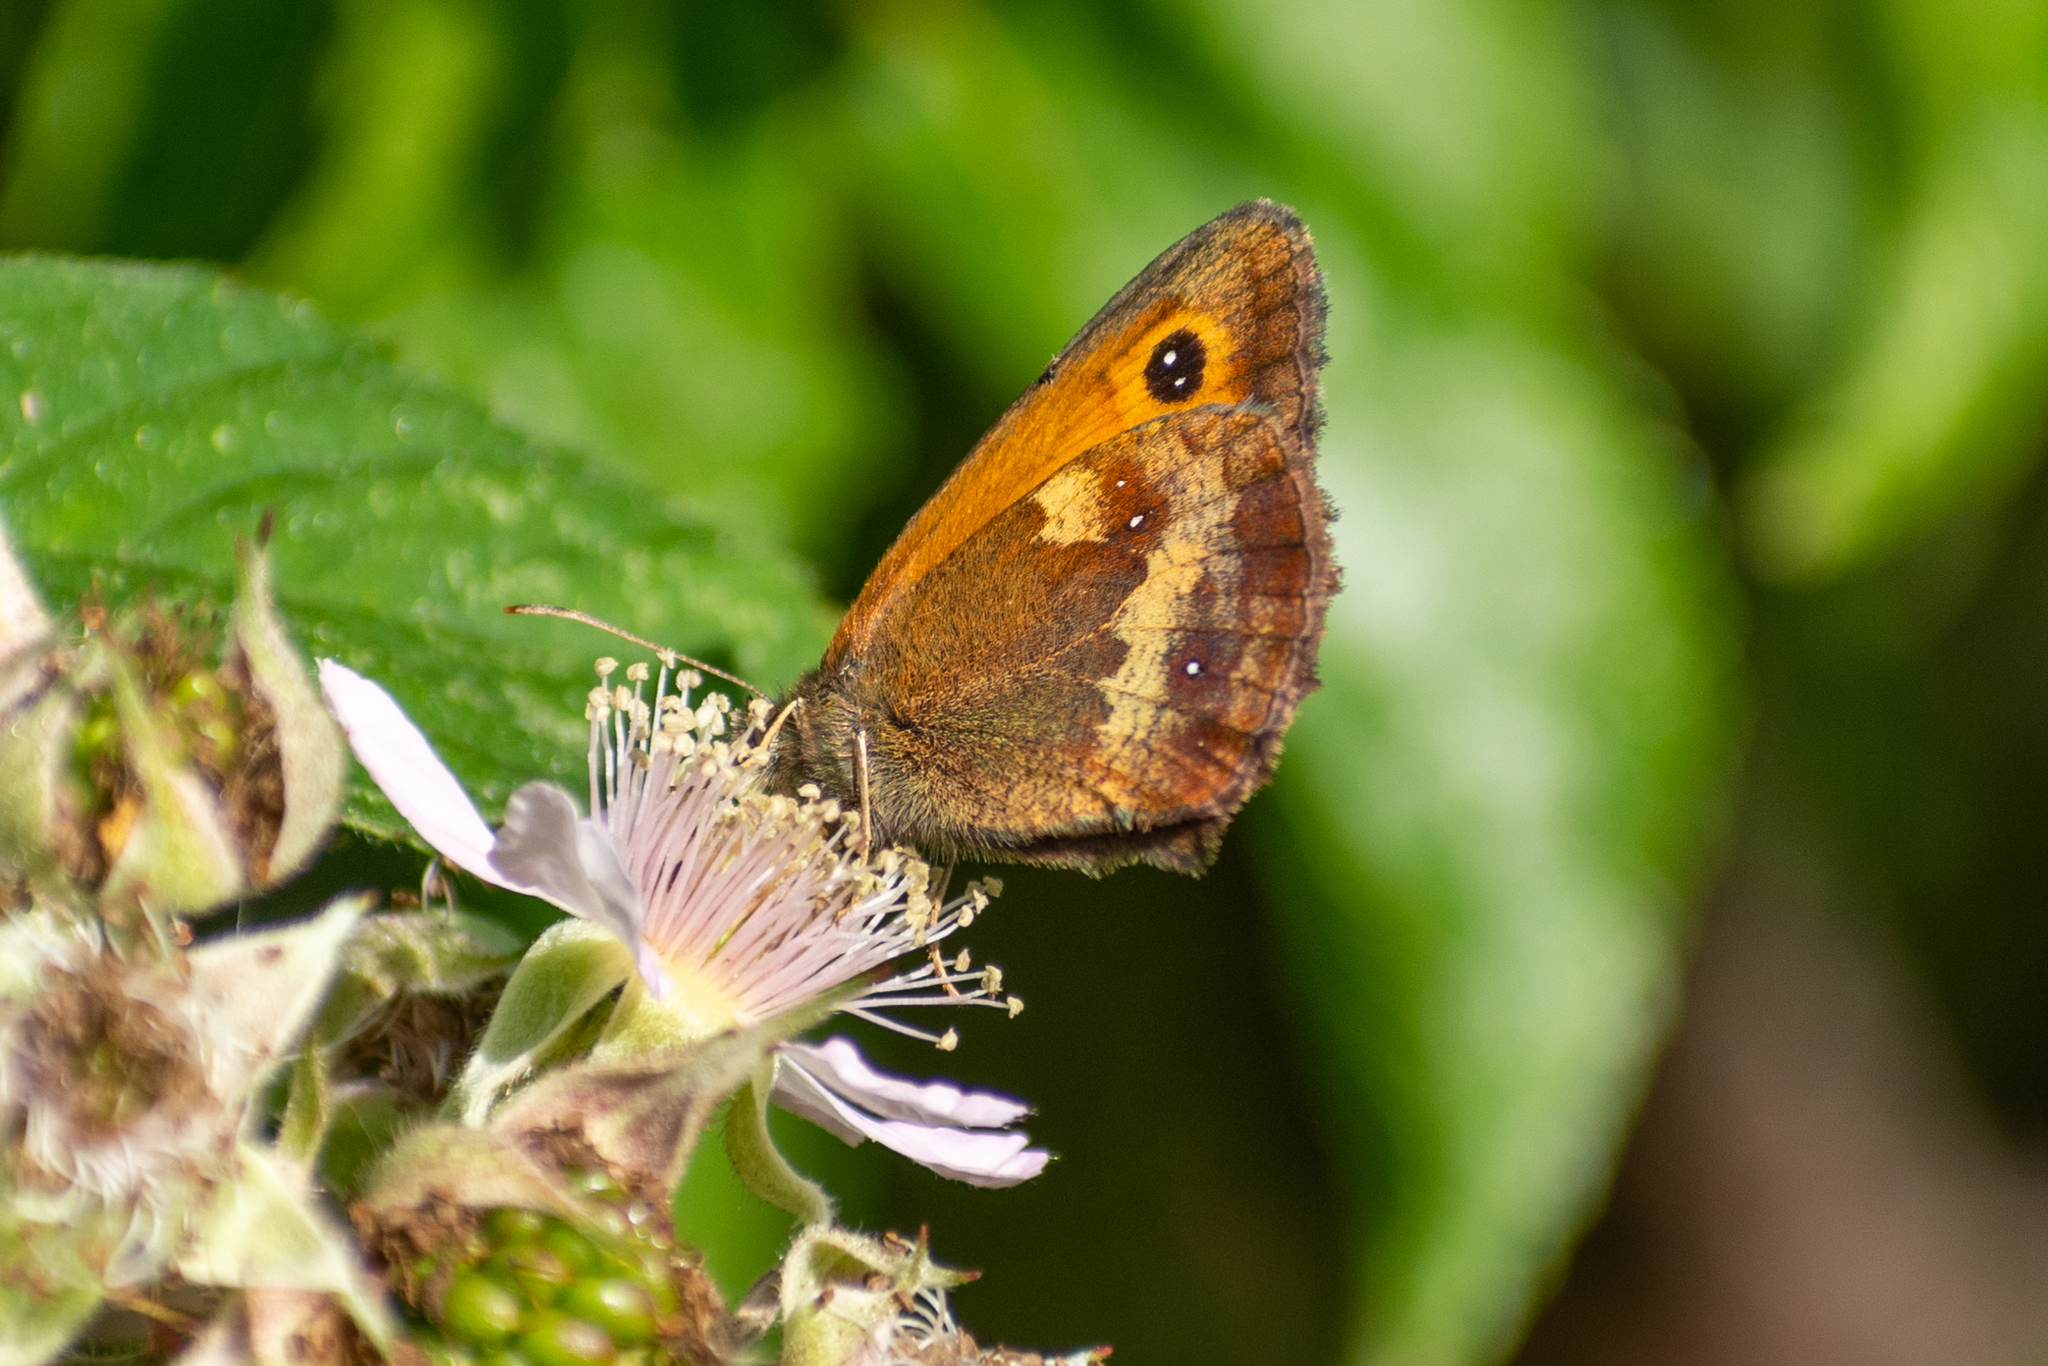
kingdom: Animalia
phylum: Arthropoda
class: Insecta
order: Lepidoptera
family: Nymphalidae
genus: Pyronia
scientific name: Pyronia tithonus
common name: Gatekeeper
